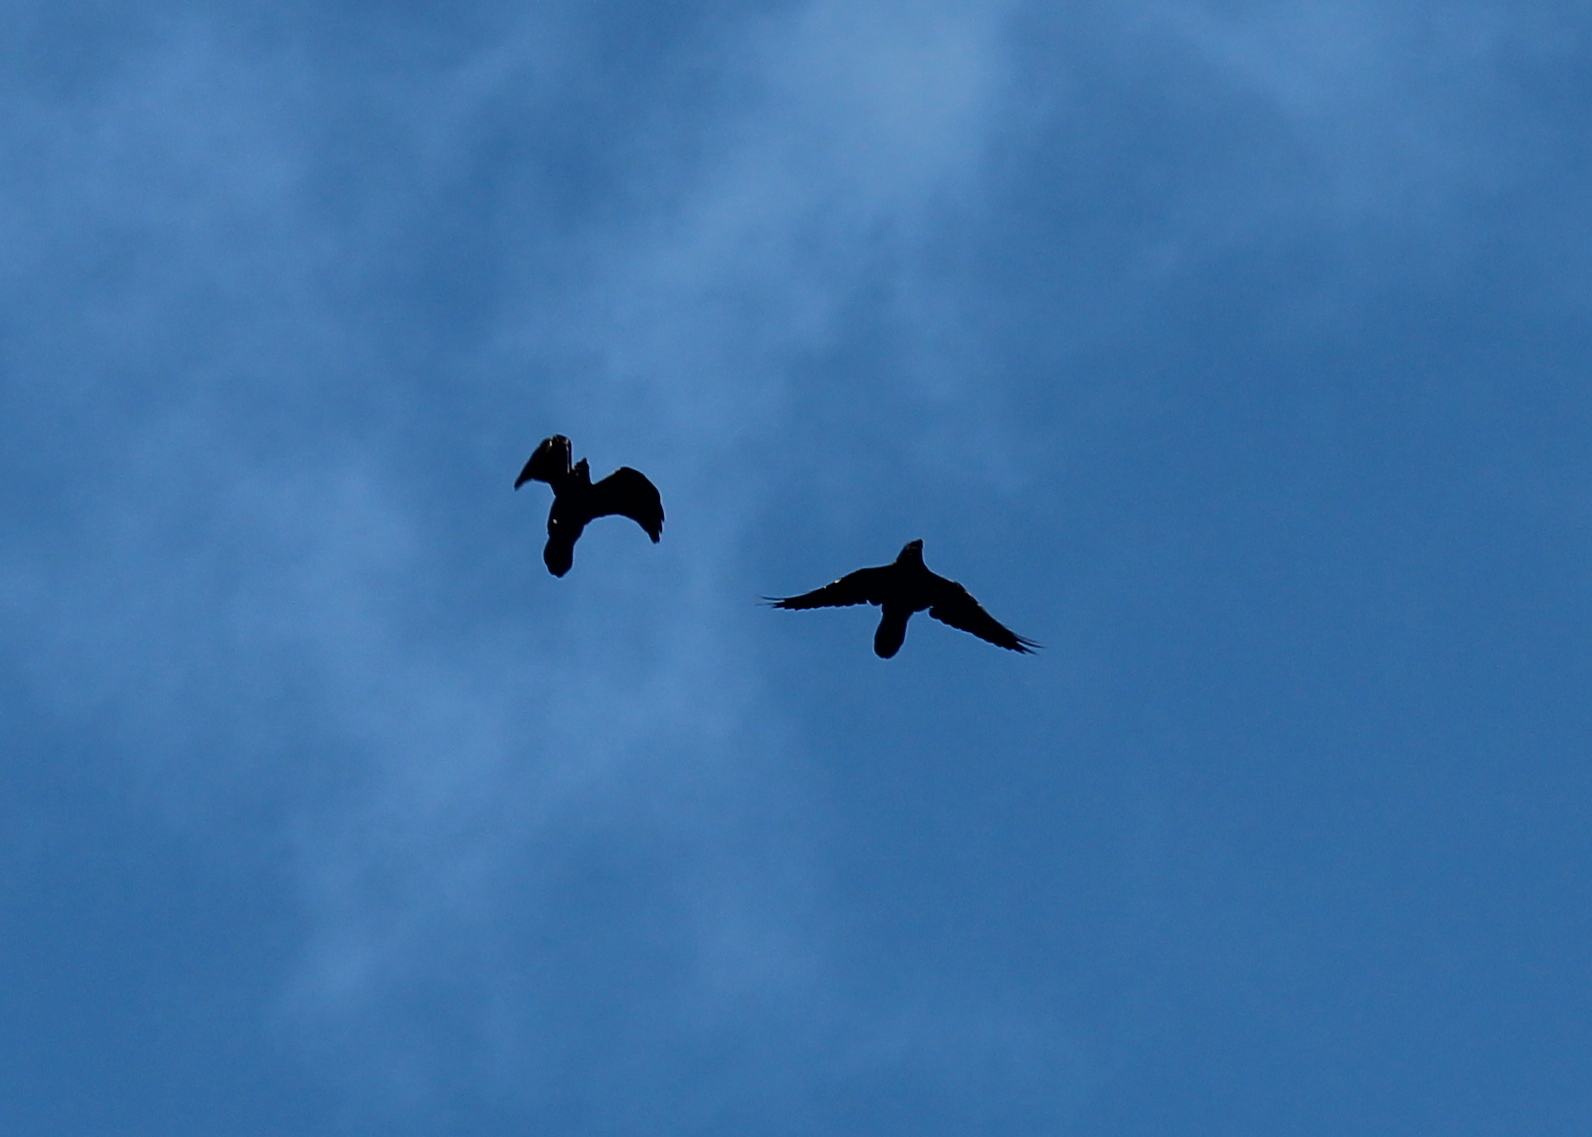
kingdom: Animalia
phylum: Chordata
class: Aves
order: Passeriformes
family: Corvidae
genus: Corvus
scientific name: Corvus corax
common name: Common raven
